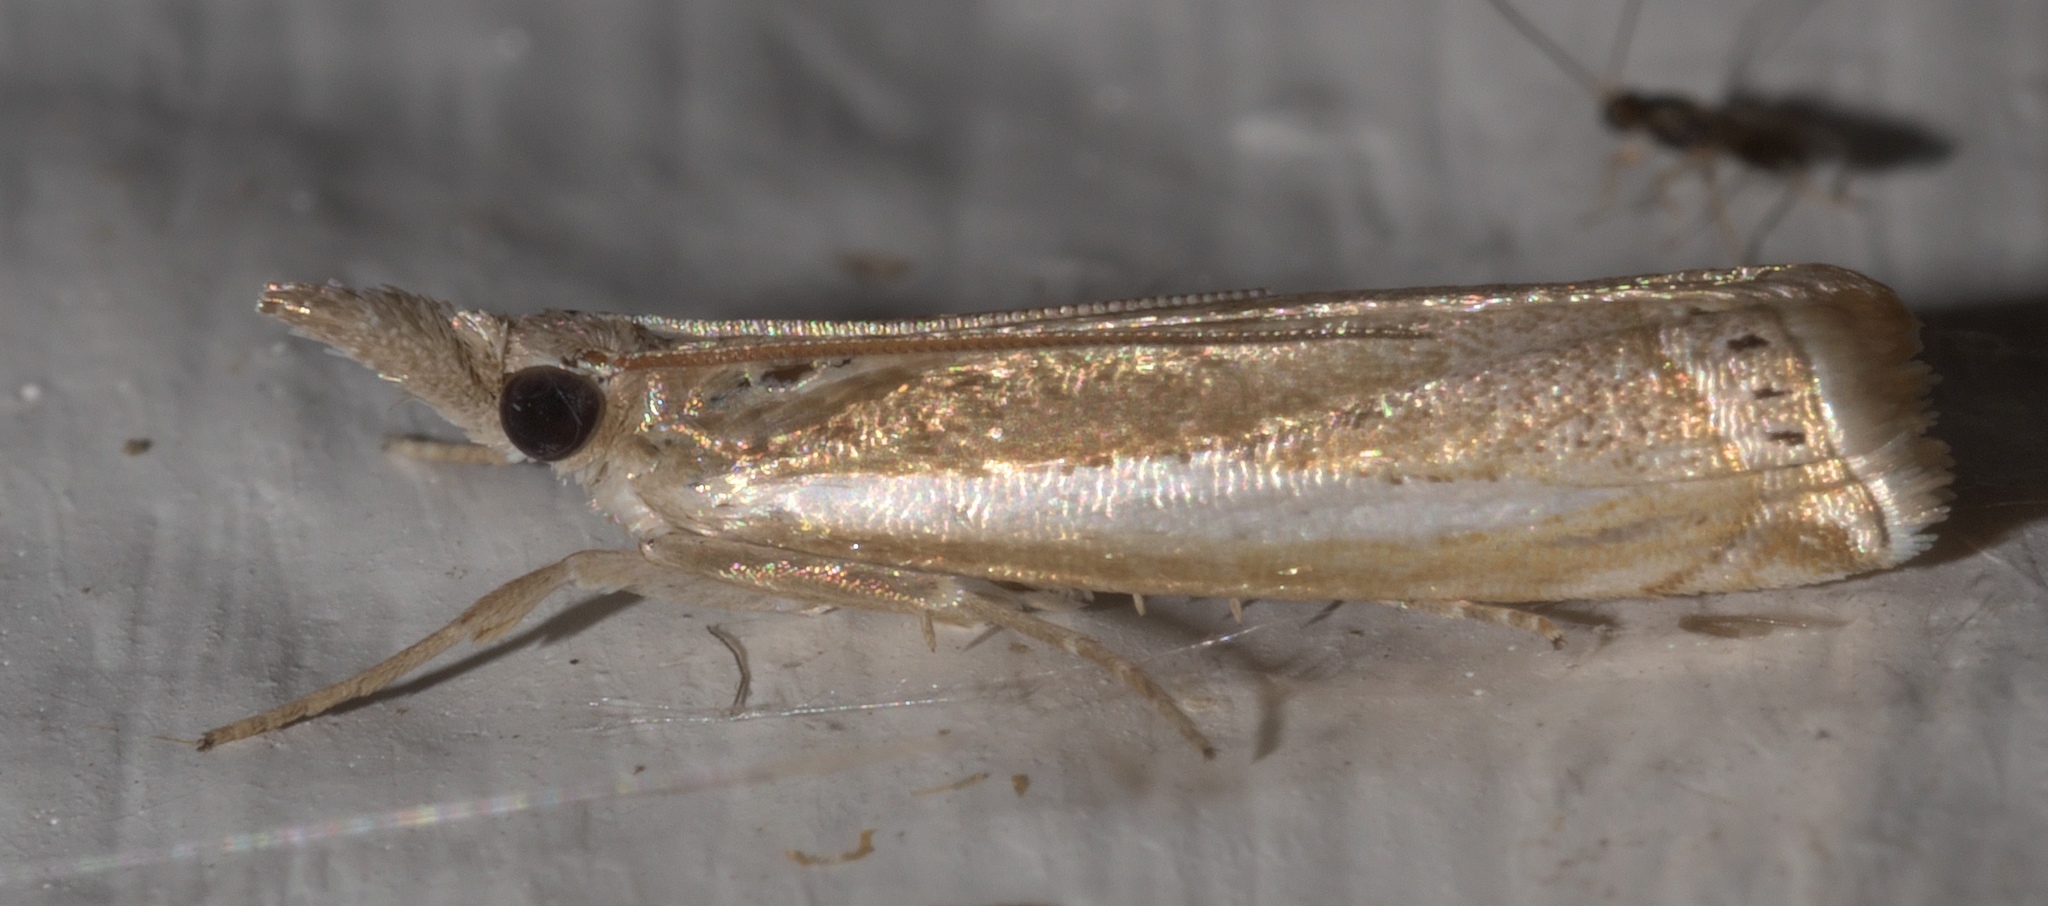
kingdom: Animalia
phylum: Arthropoda
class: Insecta
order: Lepidoptera
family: Crambidae
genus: Crambus
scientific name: Crambus praefectellus
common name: Common grass-veneer
